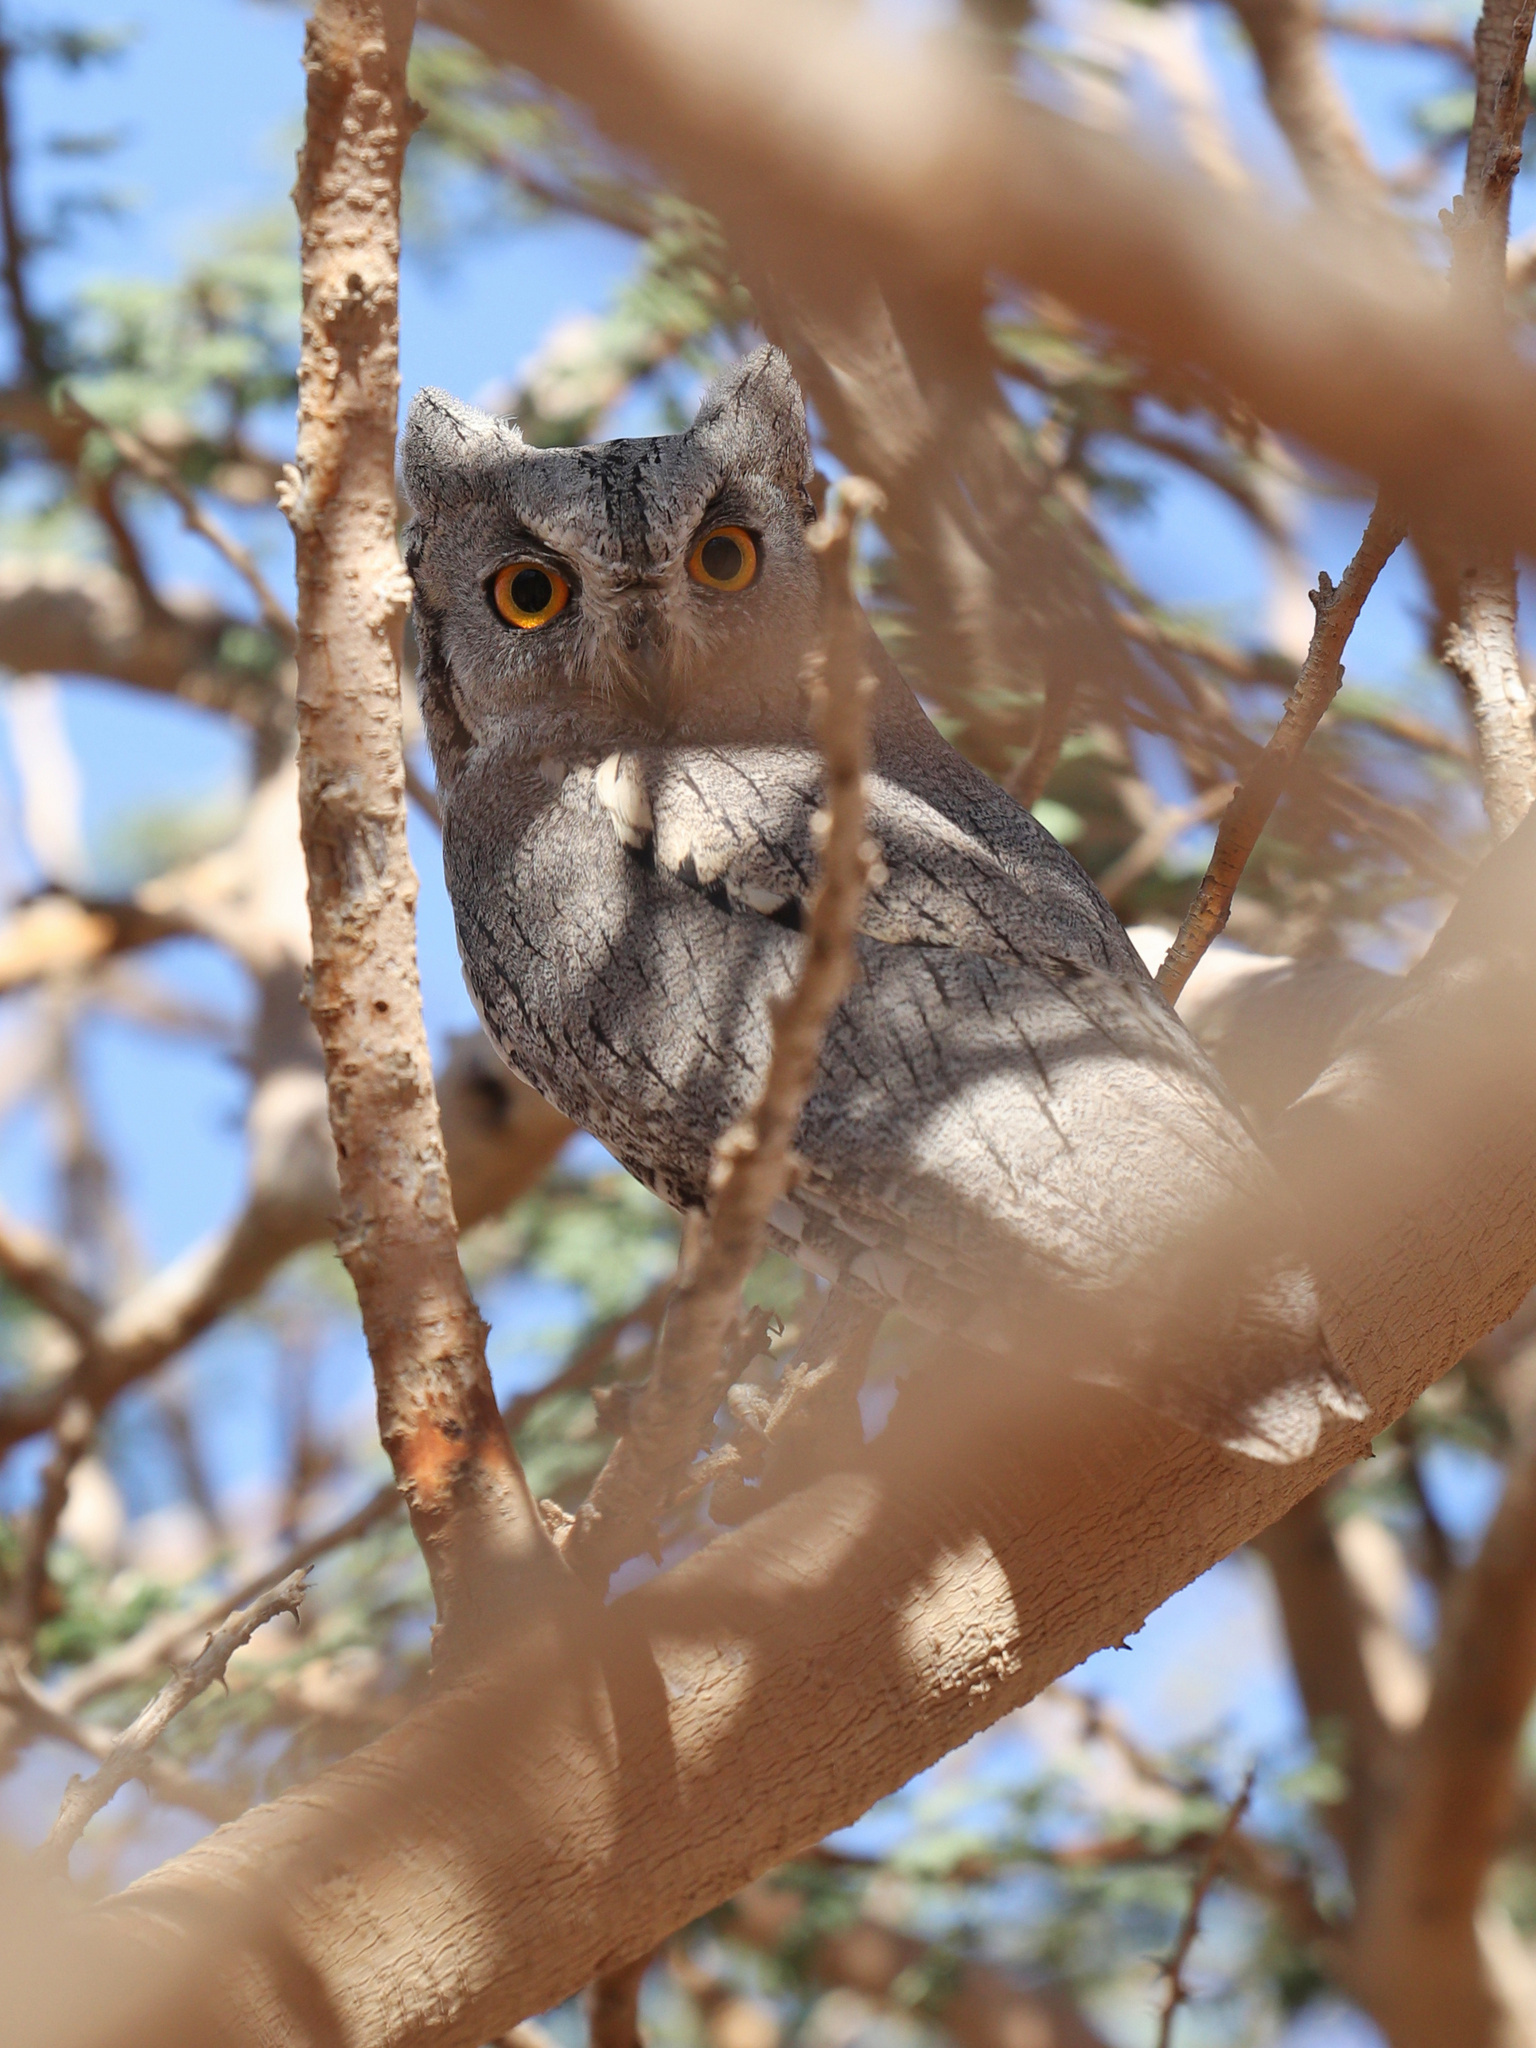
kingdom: Animalia
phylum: Chordata
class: Aves
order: Strigiformes
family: Strigidae
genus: Otus
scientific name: Otus brucei
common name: Pallid scops owl
